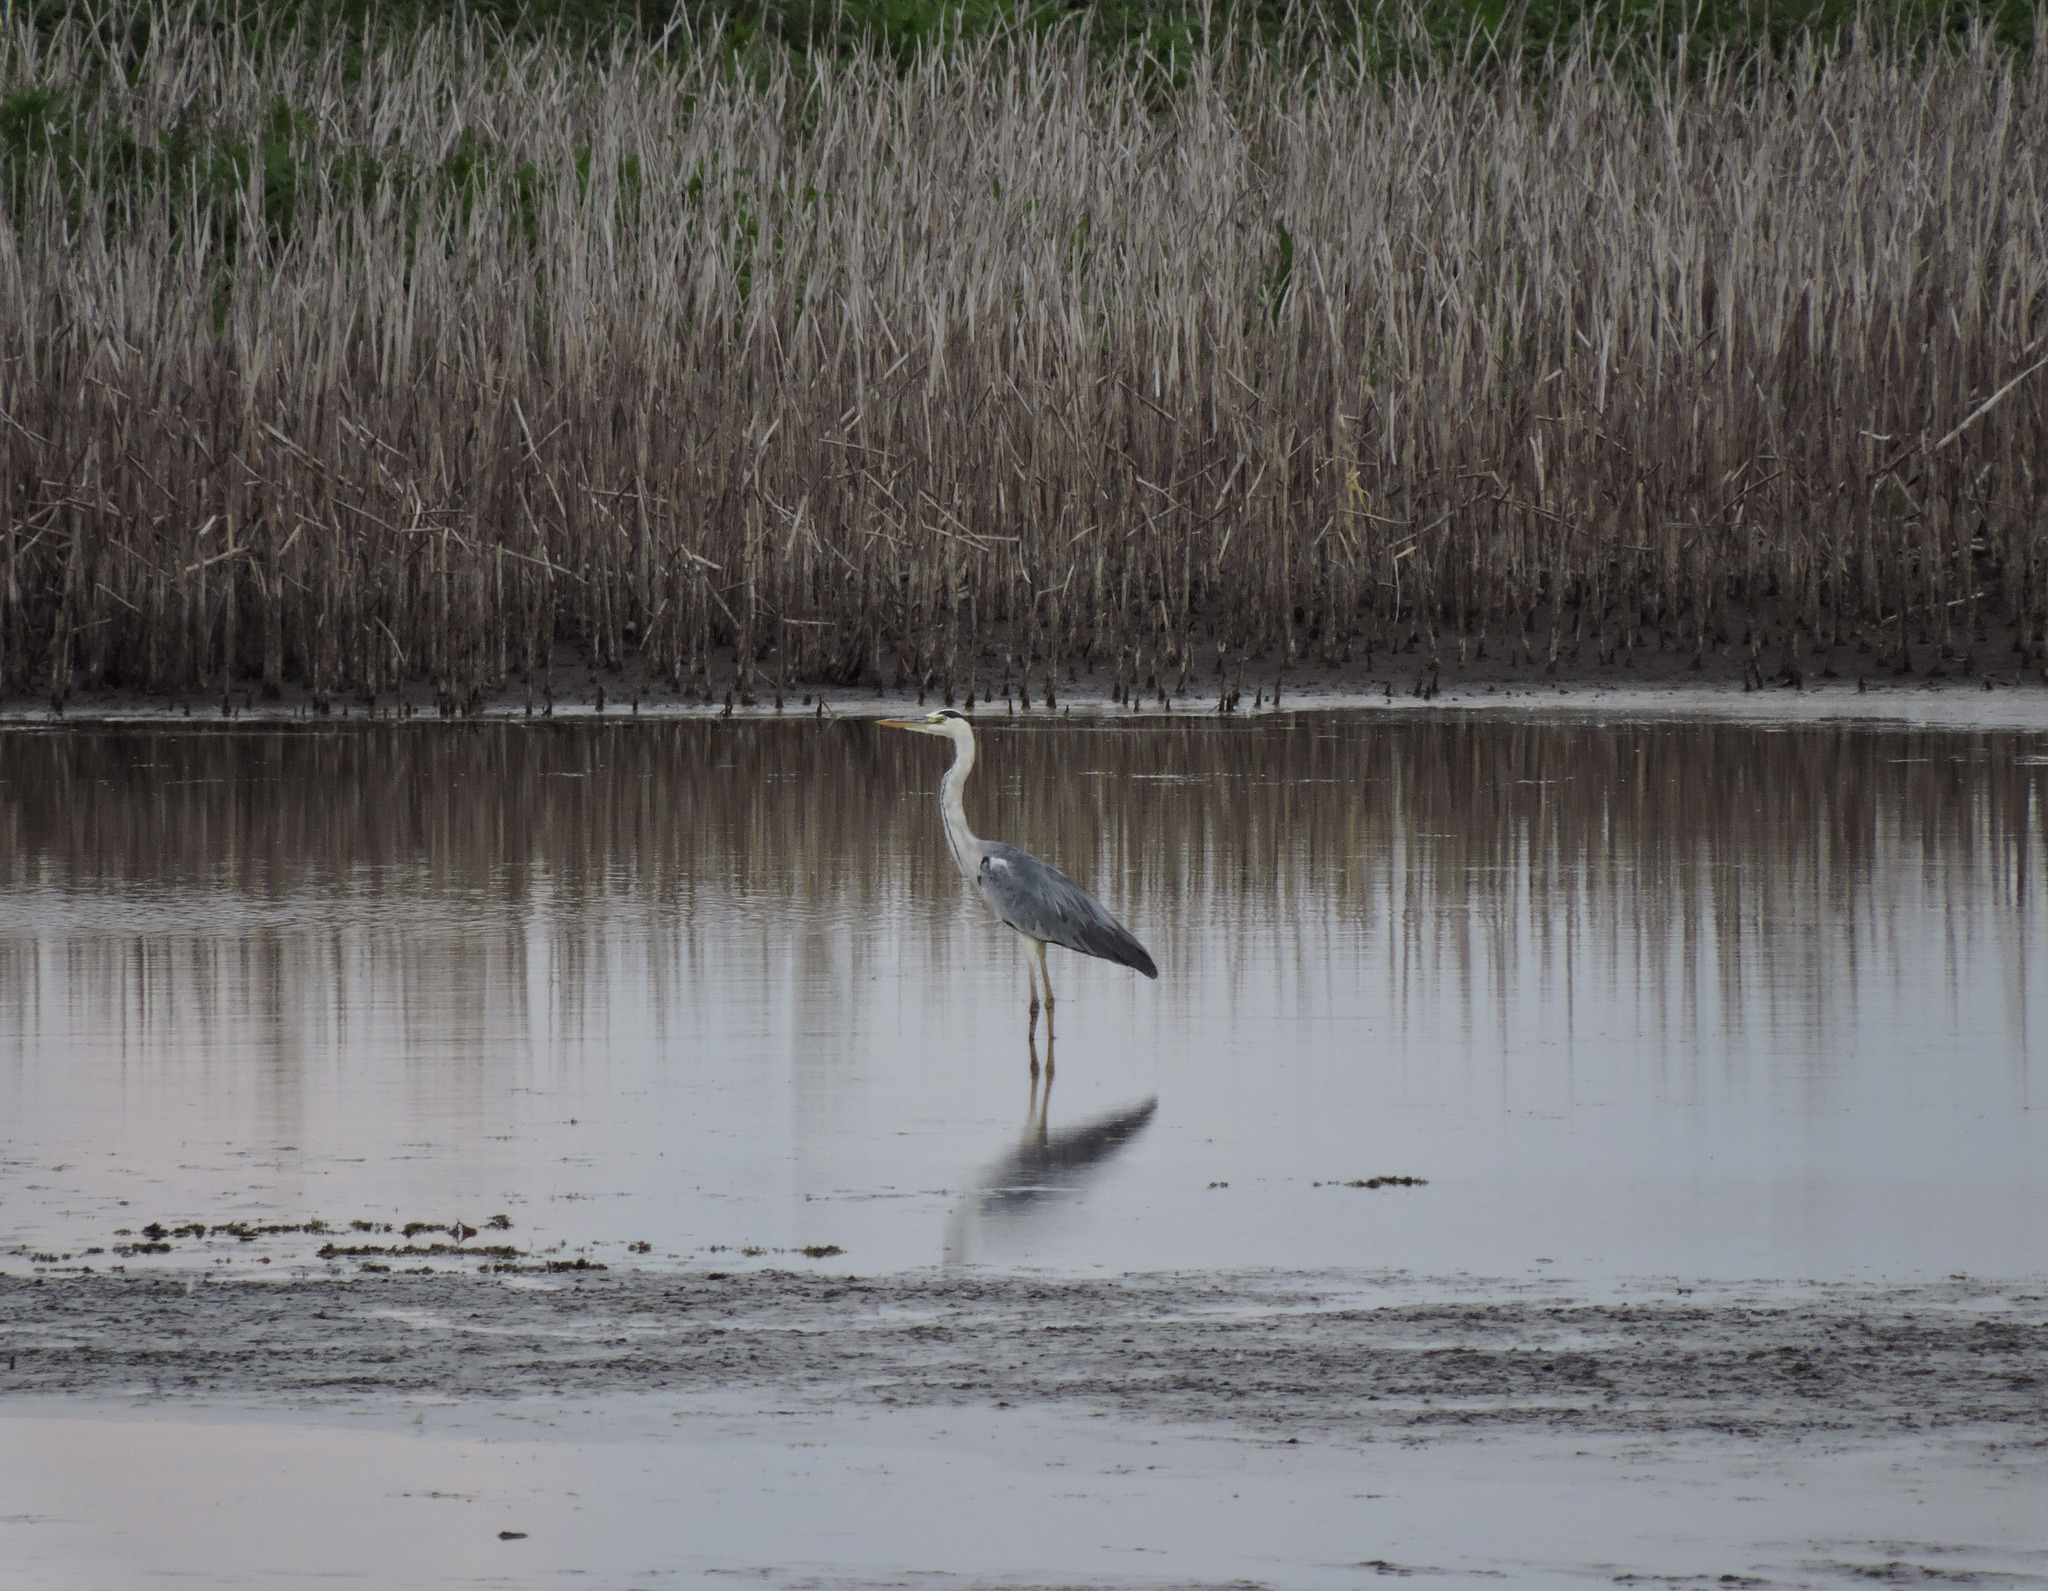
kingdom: Animalia
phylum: Chordata
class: Aves
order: Pelecaniformes
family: Ardeidae
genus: Ardea
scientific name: Ardea cinerea
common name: Grey heron
